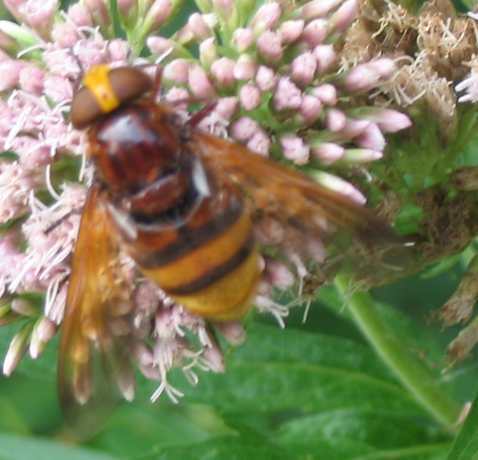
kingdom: Animalia
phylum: Arthropoda
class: Insecta
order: Diptera
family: Syrphidae
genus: Volucella
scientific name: Volucella zonaria
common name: Hornet hoverfly
